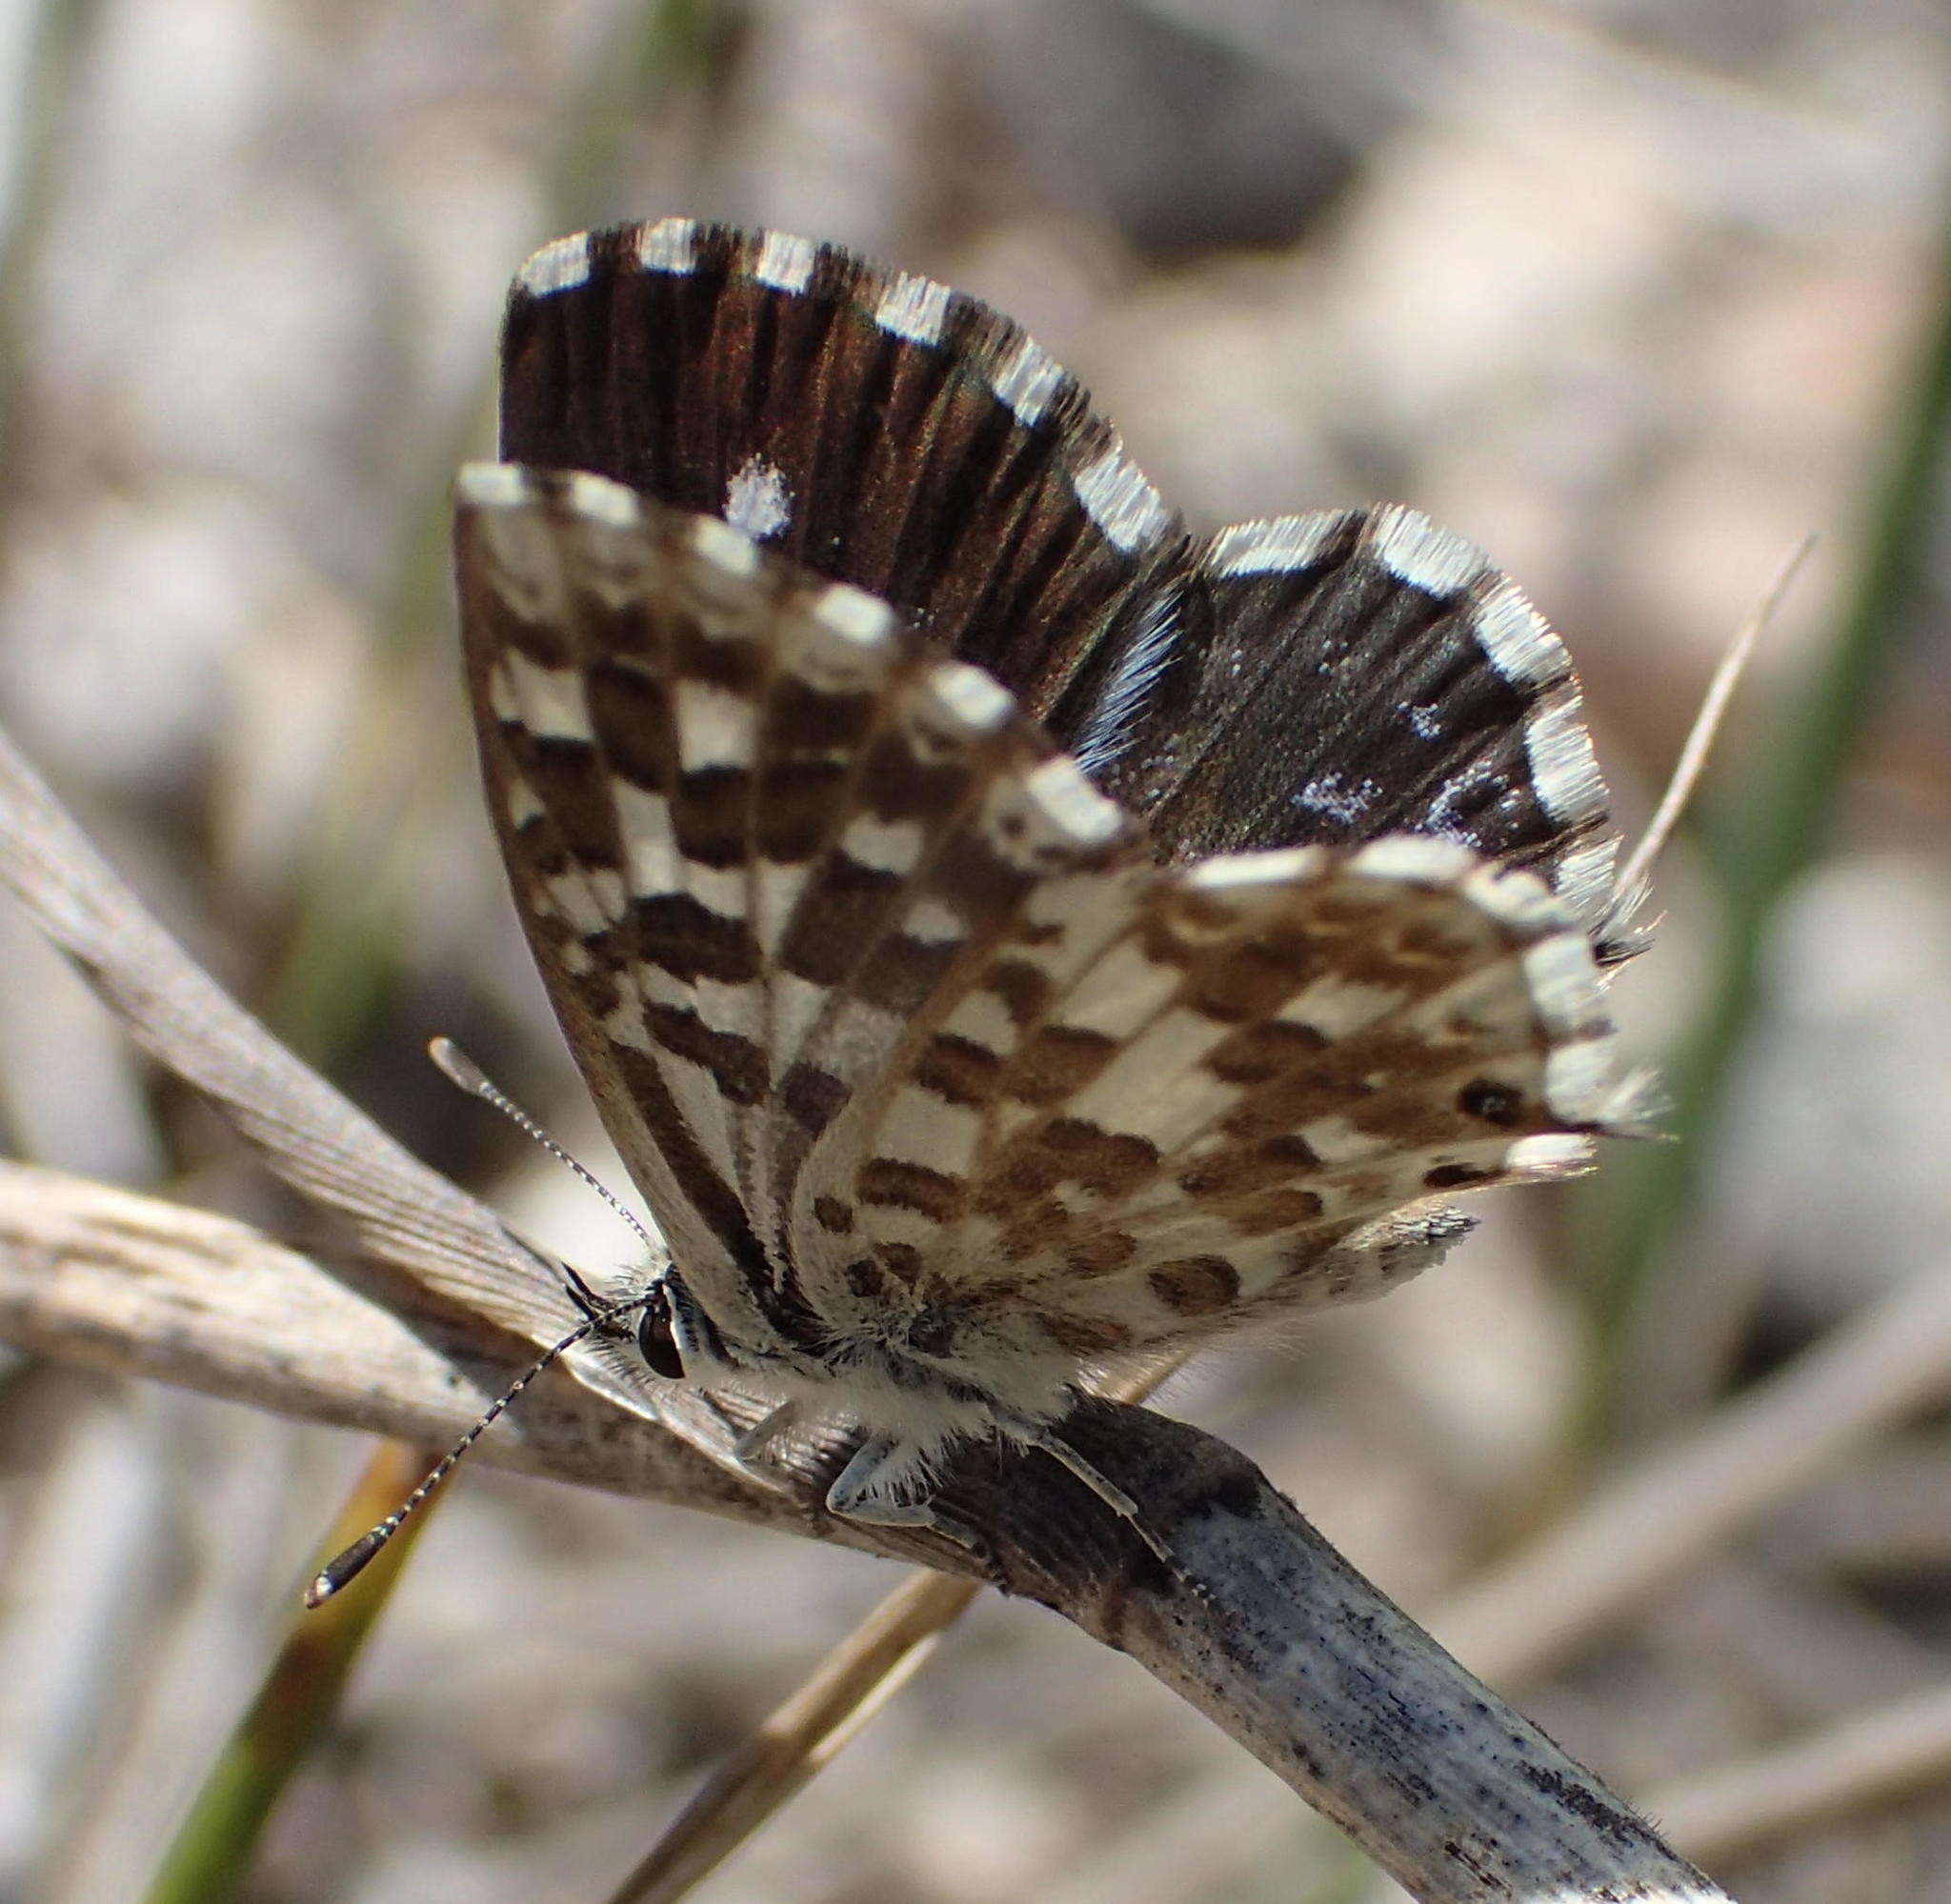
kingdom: Animalia
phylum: Arthropoda
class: Insecta
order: Lepidoptera
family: Lycaenidae
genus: Tarucus
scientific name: Tarucus thespis
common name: Vivid dotted blue
